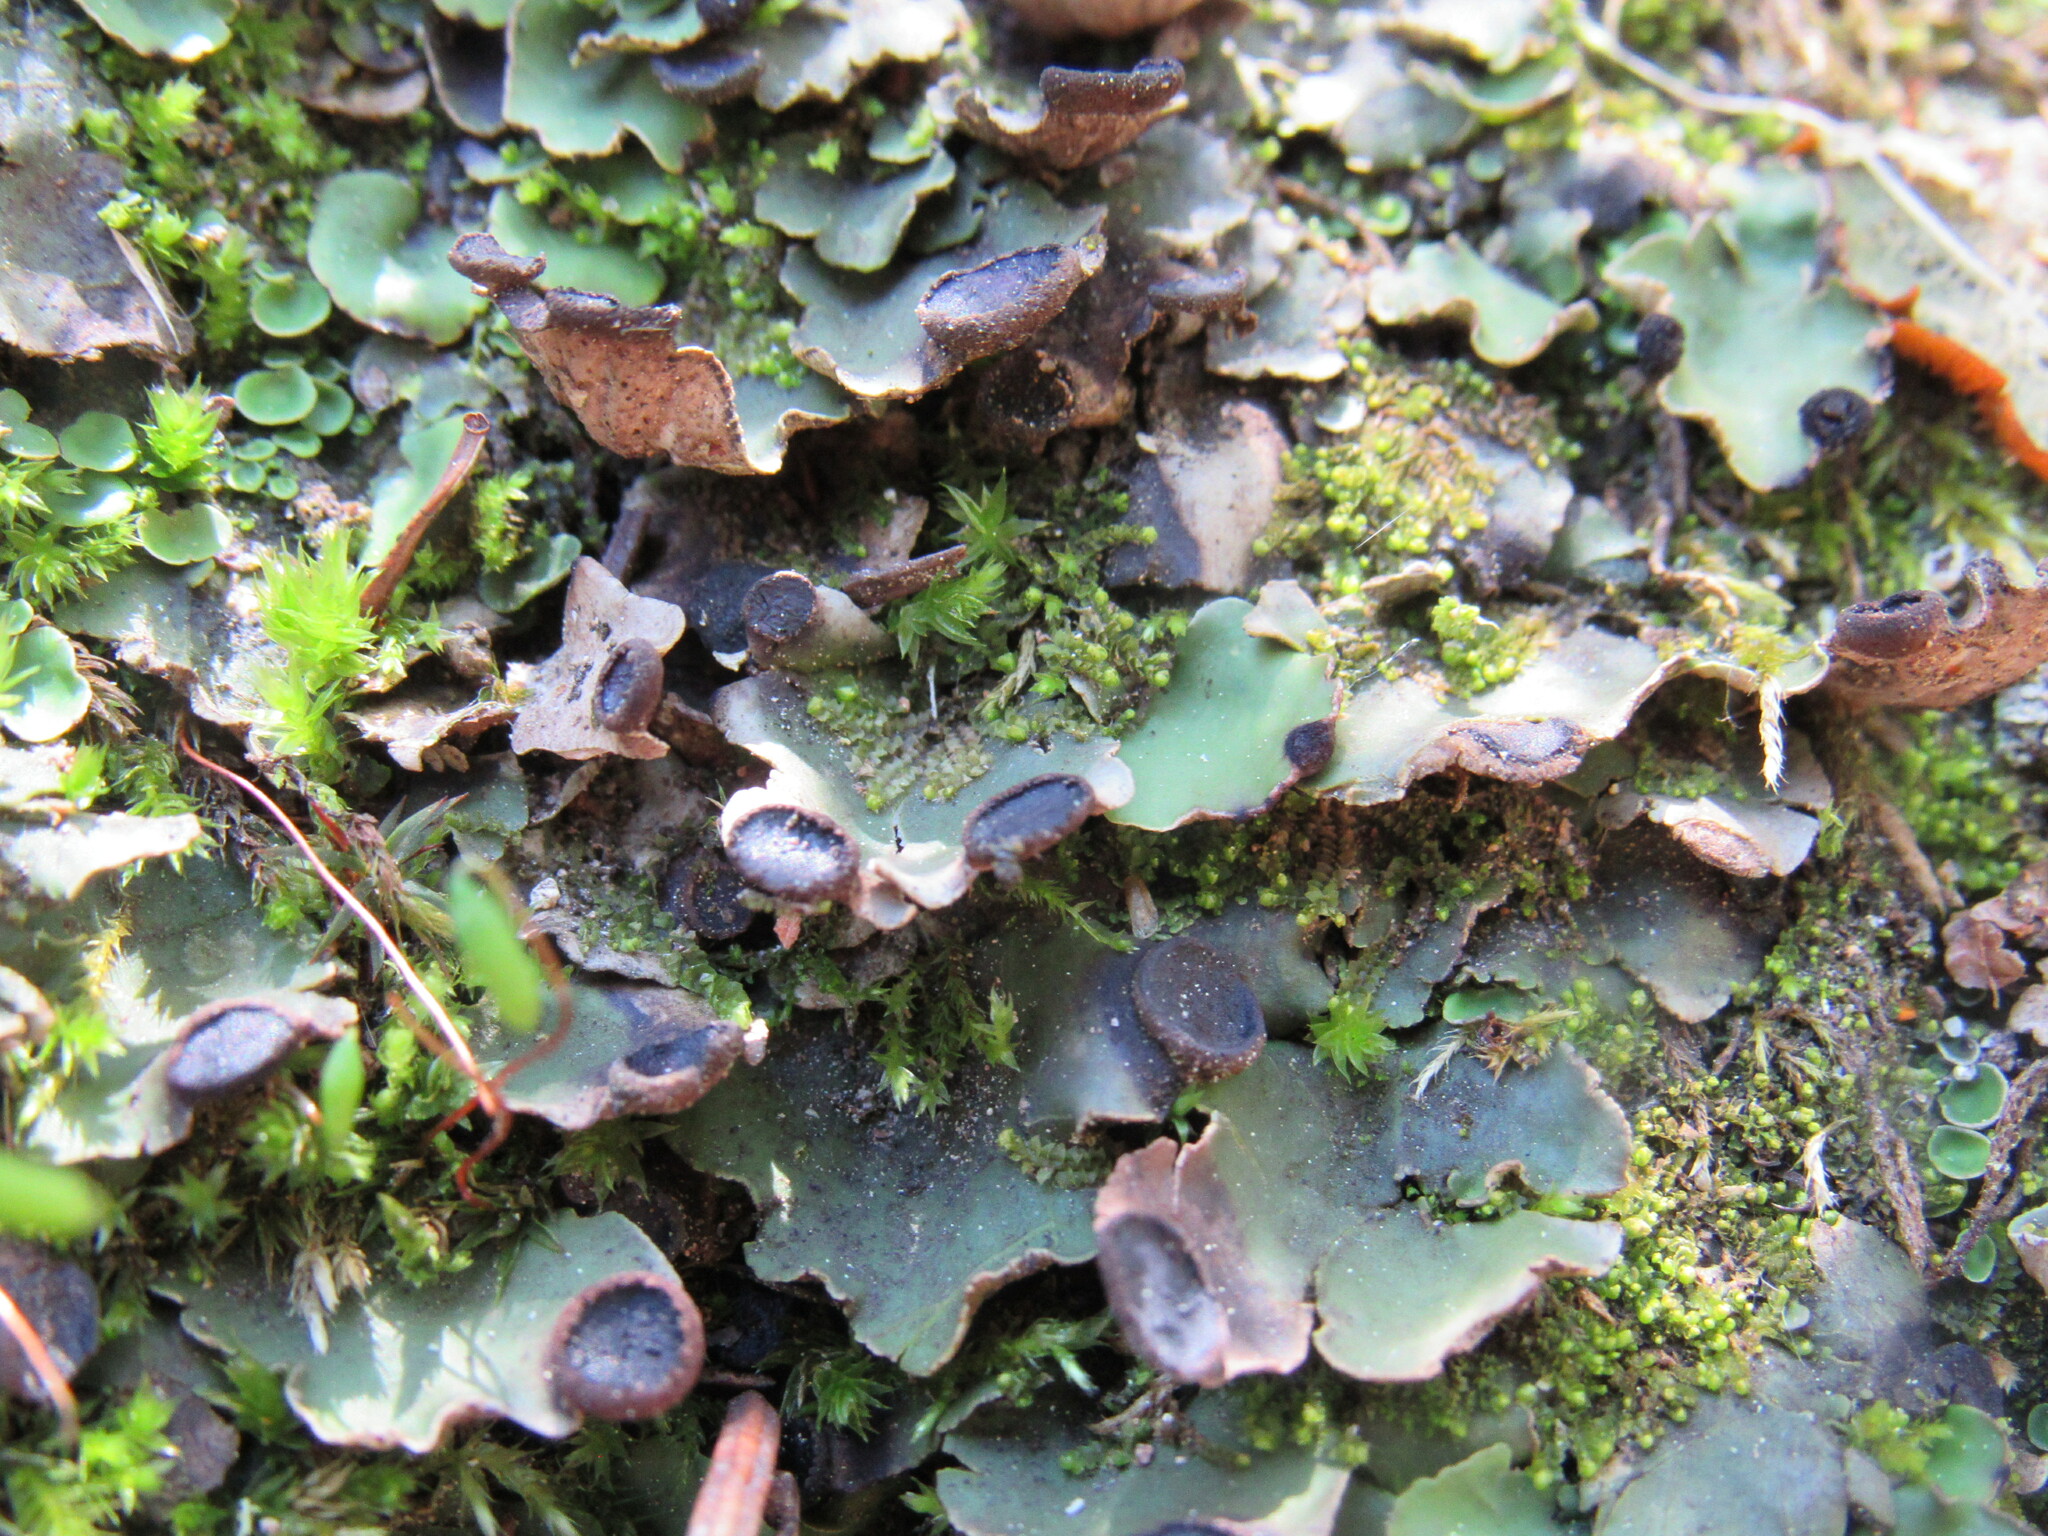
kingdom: Fungi
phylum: Ascomycota
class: Lecanoromycetes
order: Peltigerales
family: Peltigeraceae
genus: Peltigera
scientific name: Peltigera venosa
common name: Pixie gowns lichen
